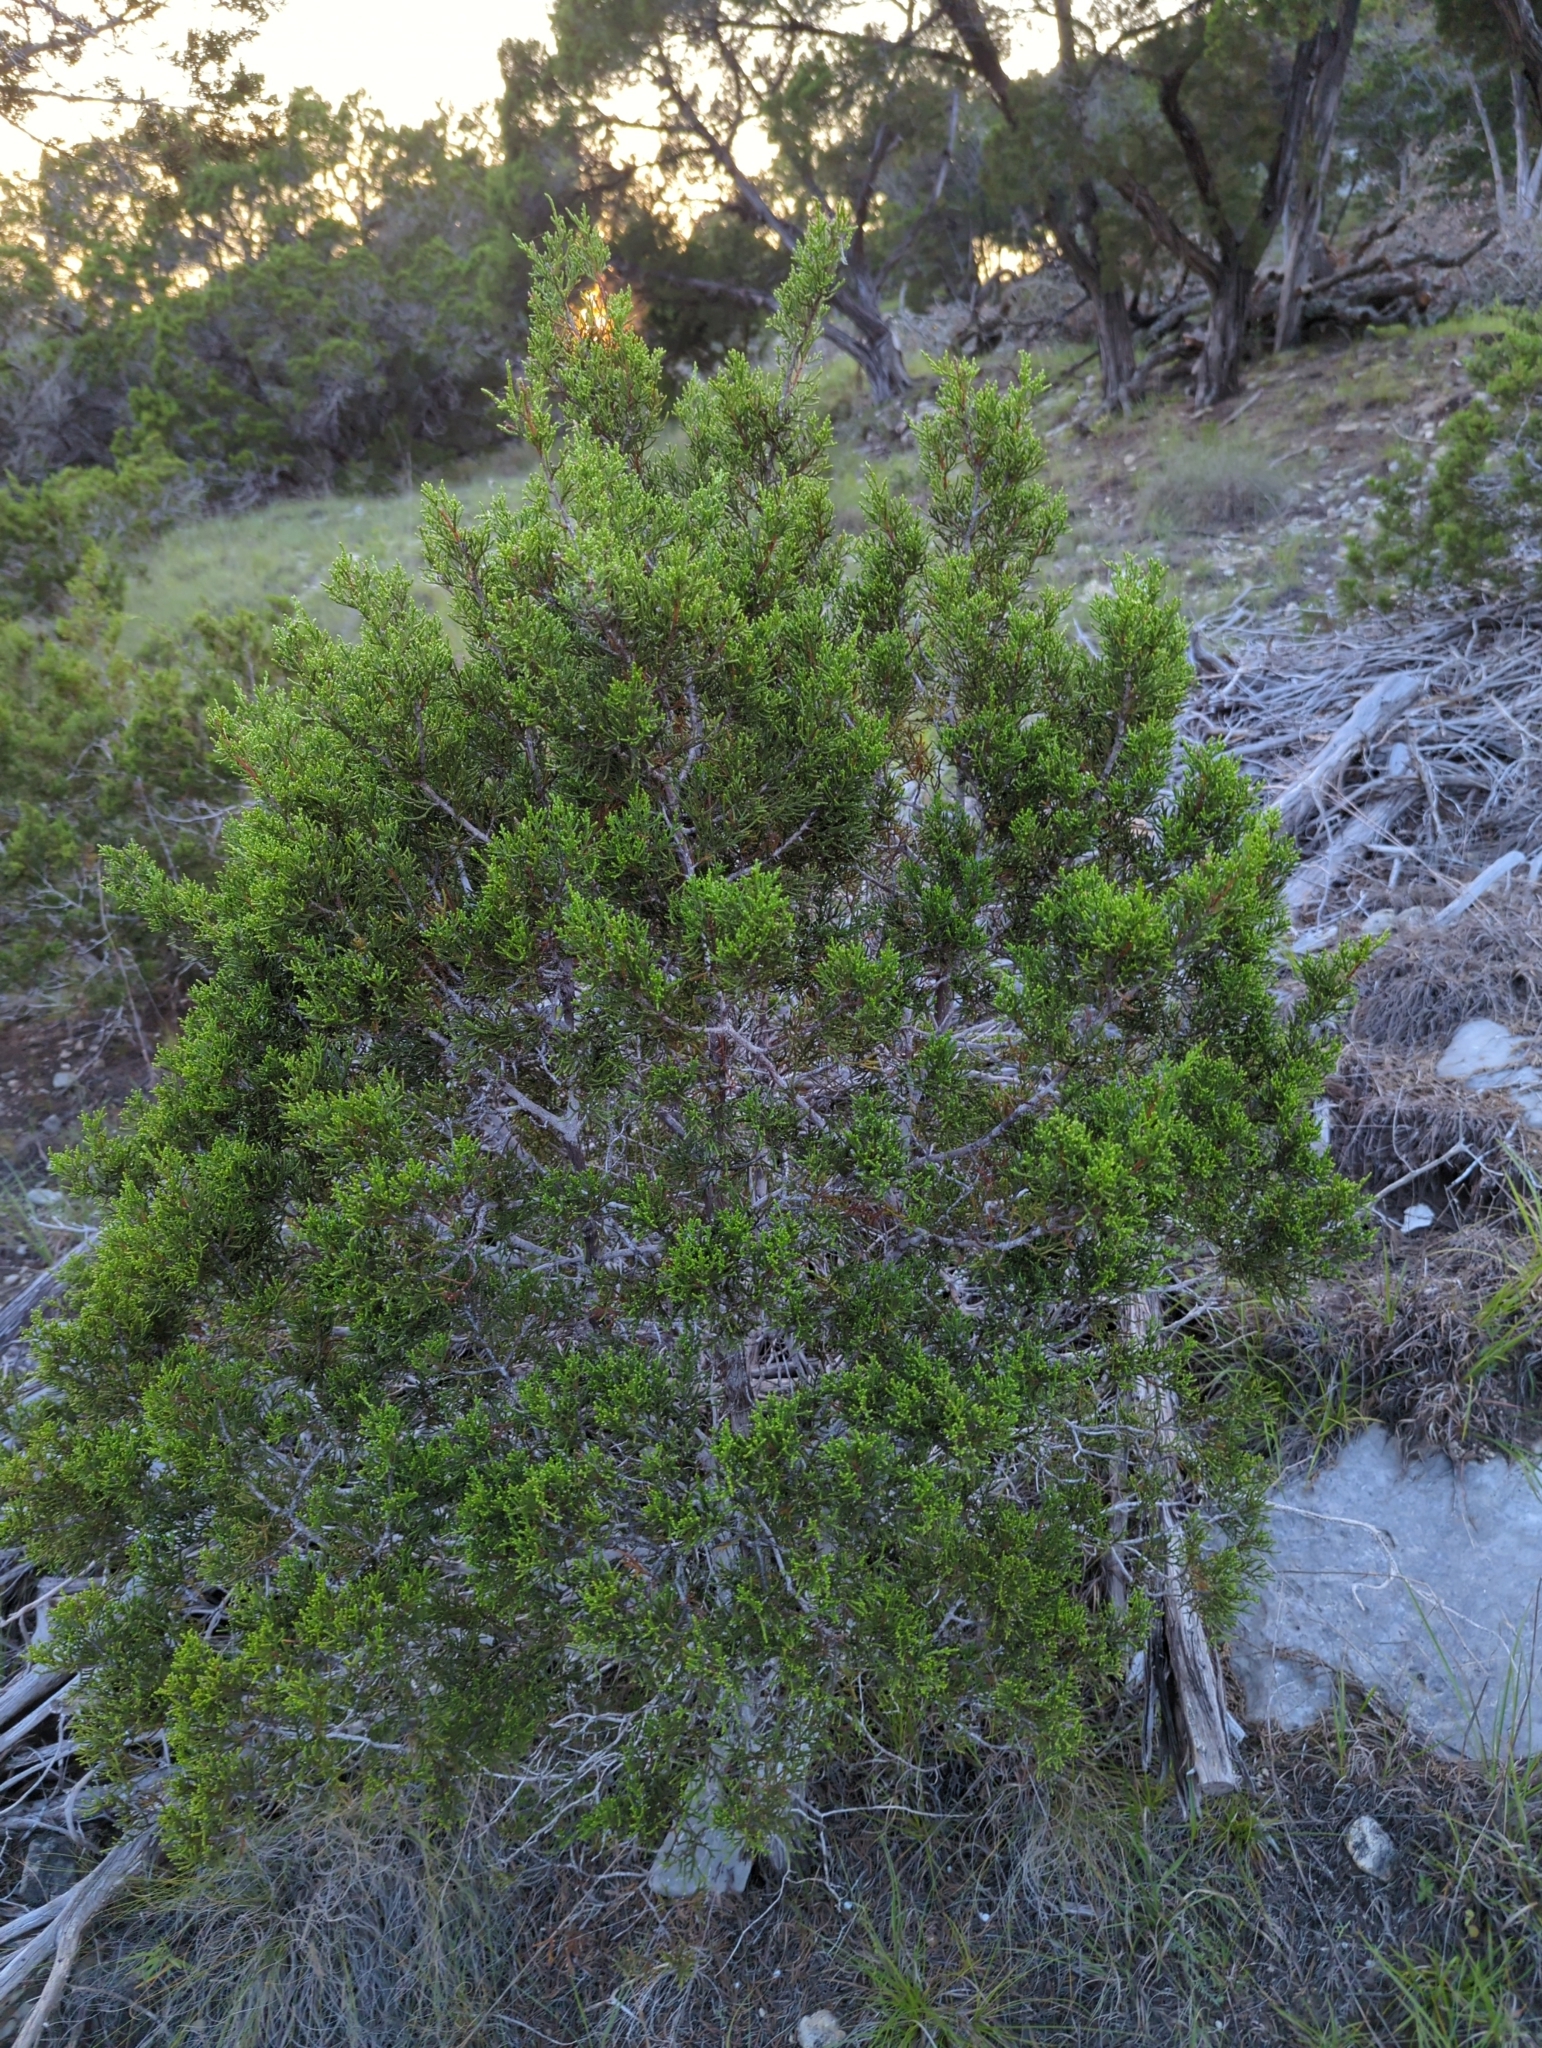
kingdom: Plantae
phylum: Tracheophyta
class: Pinopsida
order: Pinales
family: Cupressaceae
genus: Juniperus
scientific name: Juniperus ashei
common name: Mexican juniper
